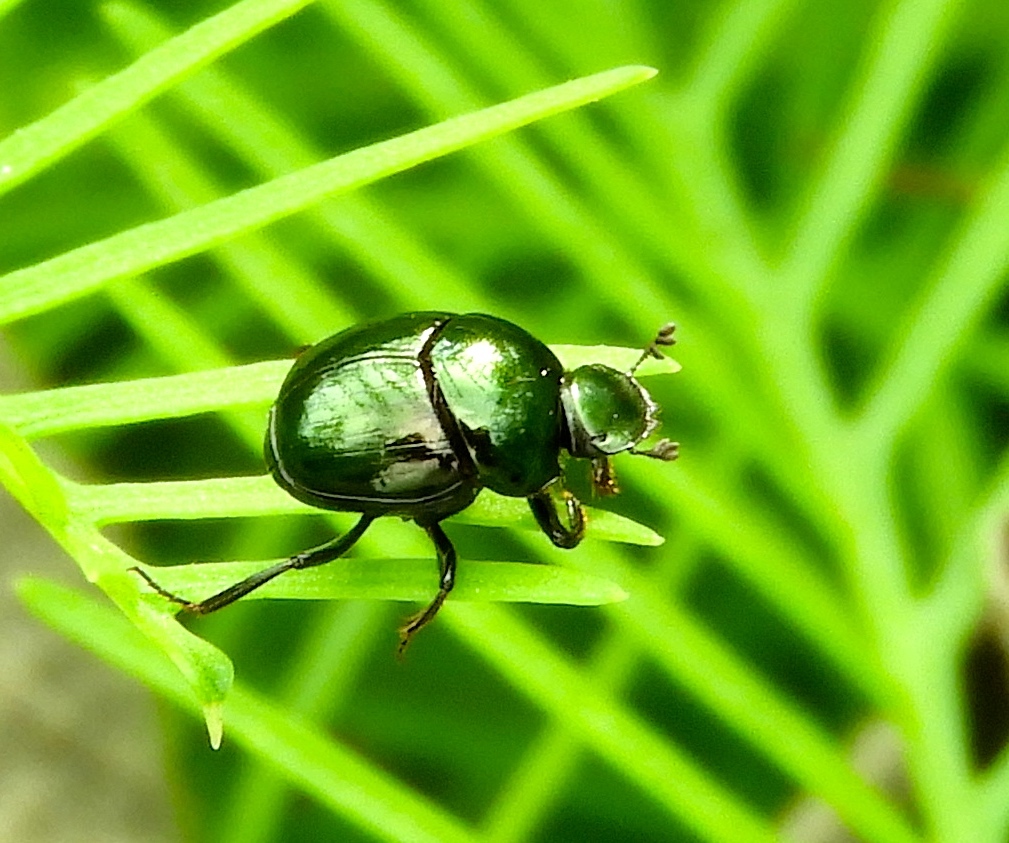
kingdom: Animalia
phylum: Arthropoda
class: Insecta
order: Coleoptera
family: Scarabaeidae
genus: Canthon
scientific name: Canthon
